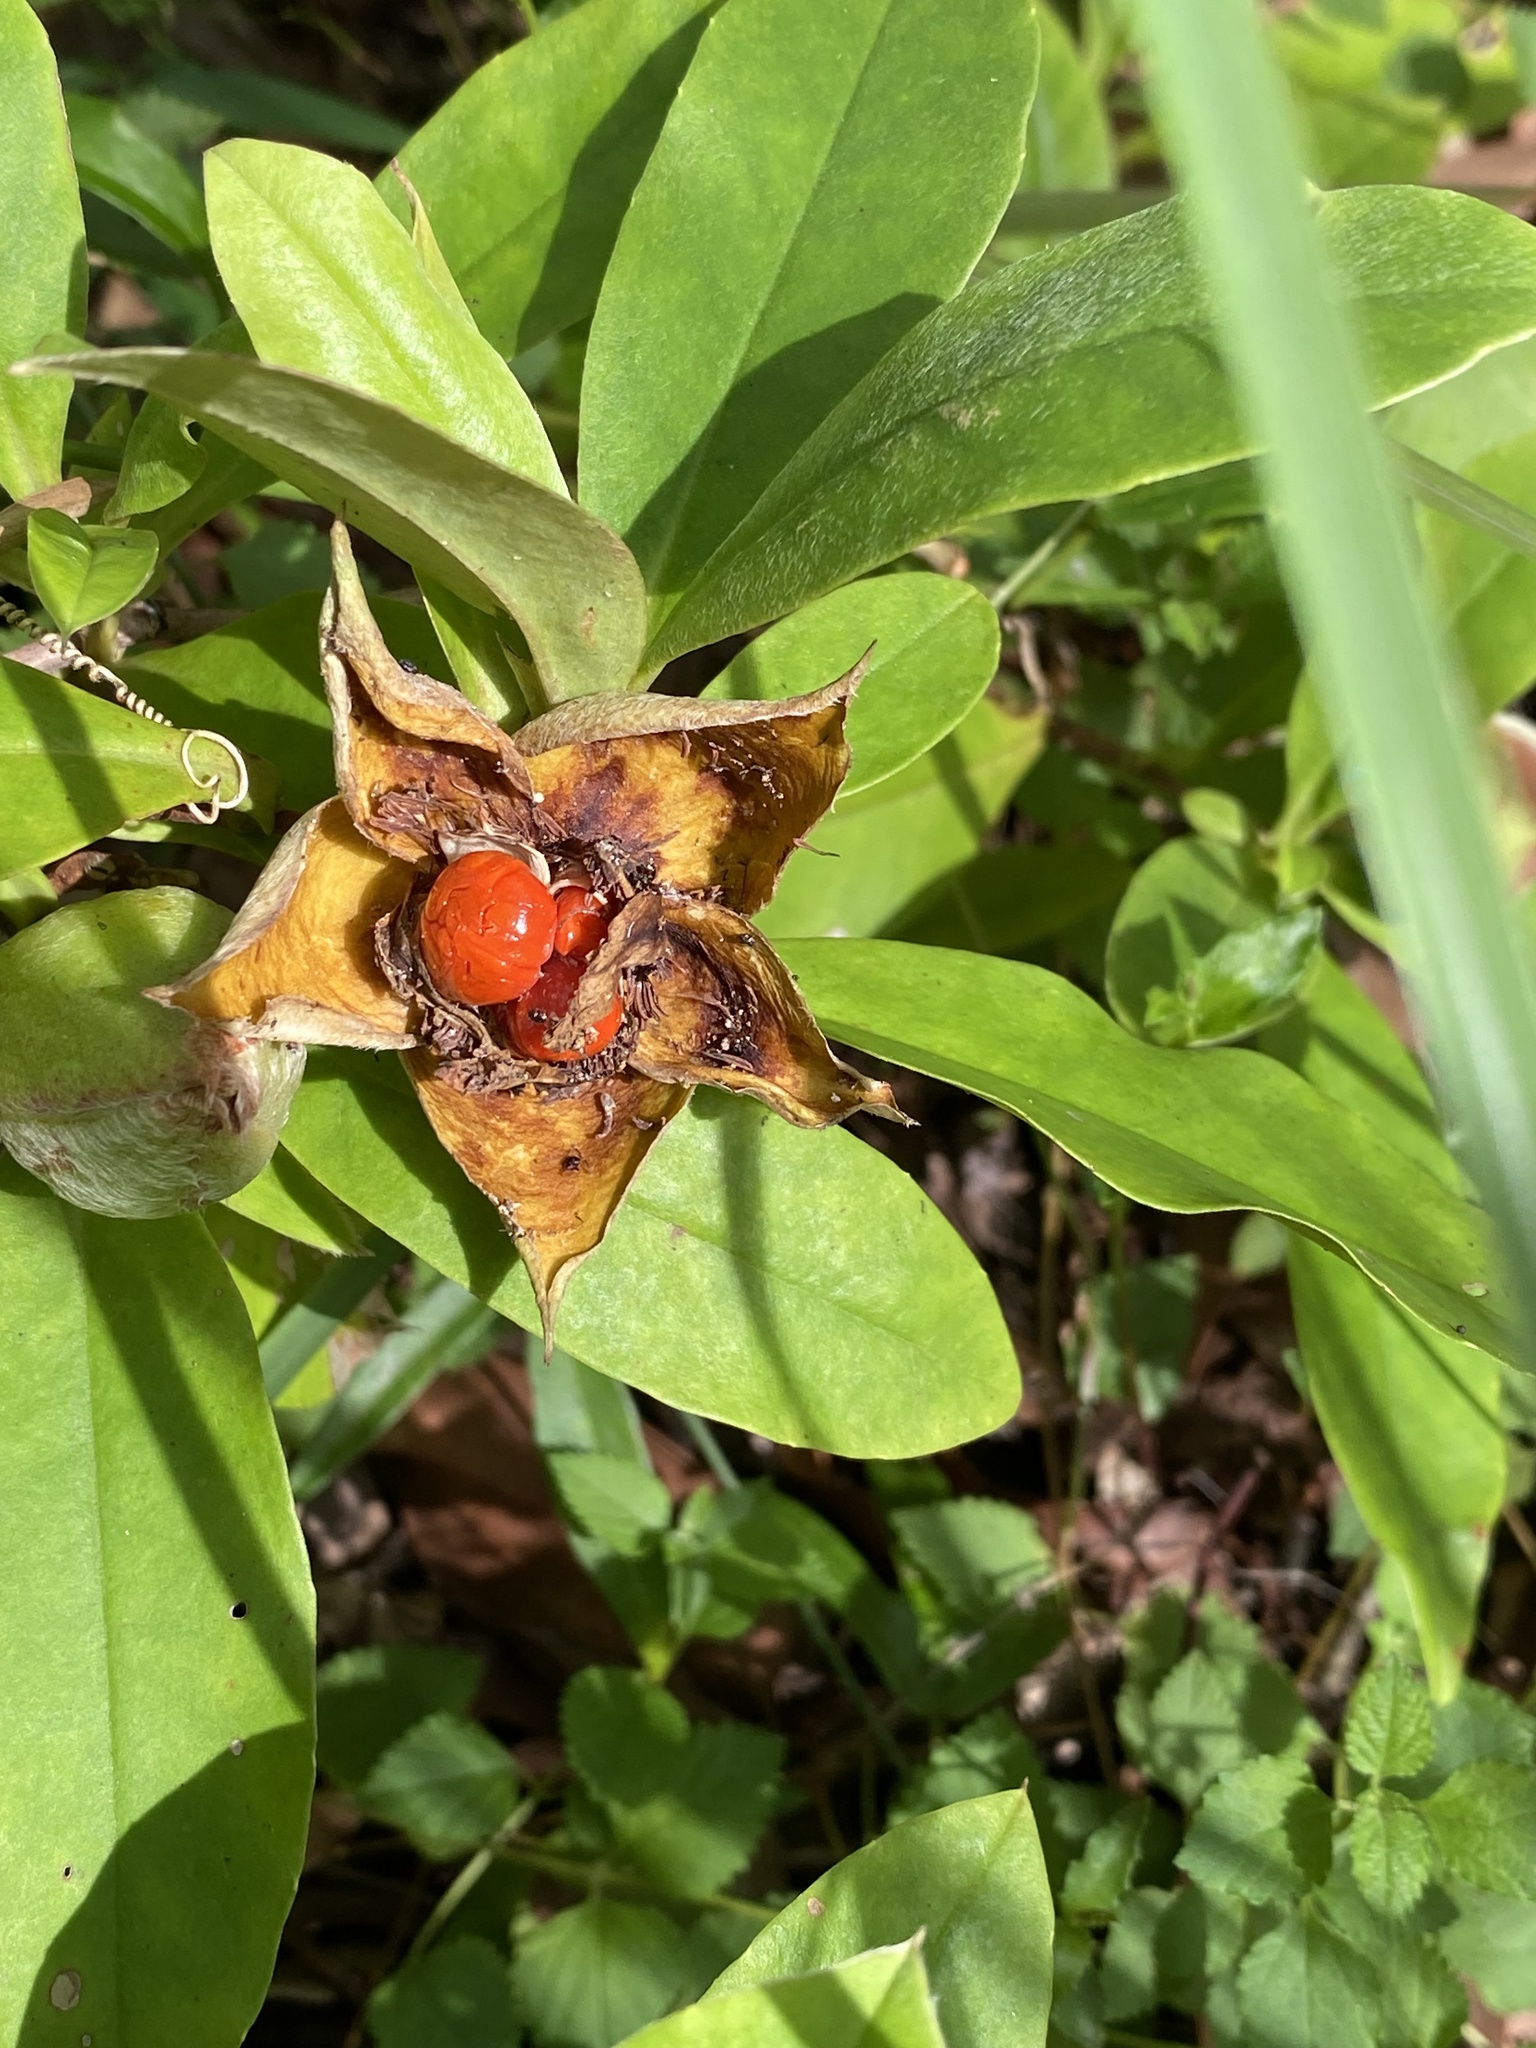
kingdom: Plantae
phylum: Tracheophyta
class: Magnoliopsida
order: Dilleniales
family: Dilleniaceae
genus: Hibbertia
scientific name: Hibbertia scandens
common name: Climbing guinea-flower
